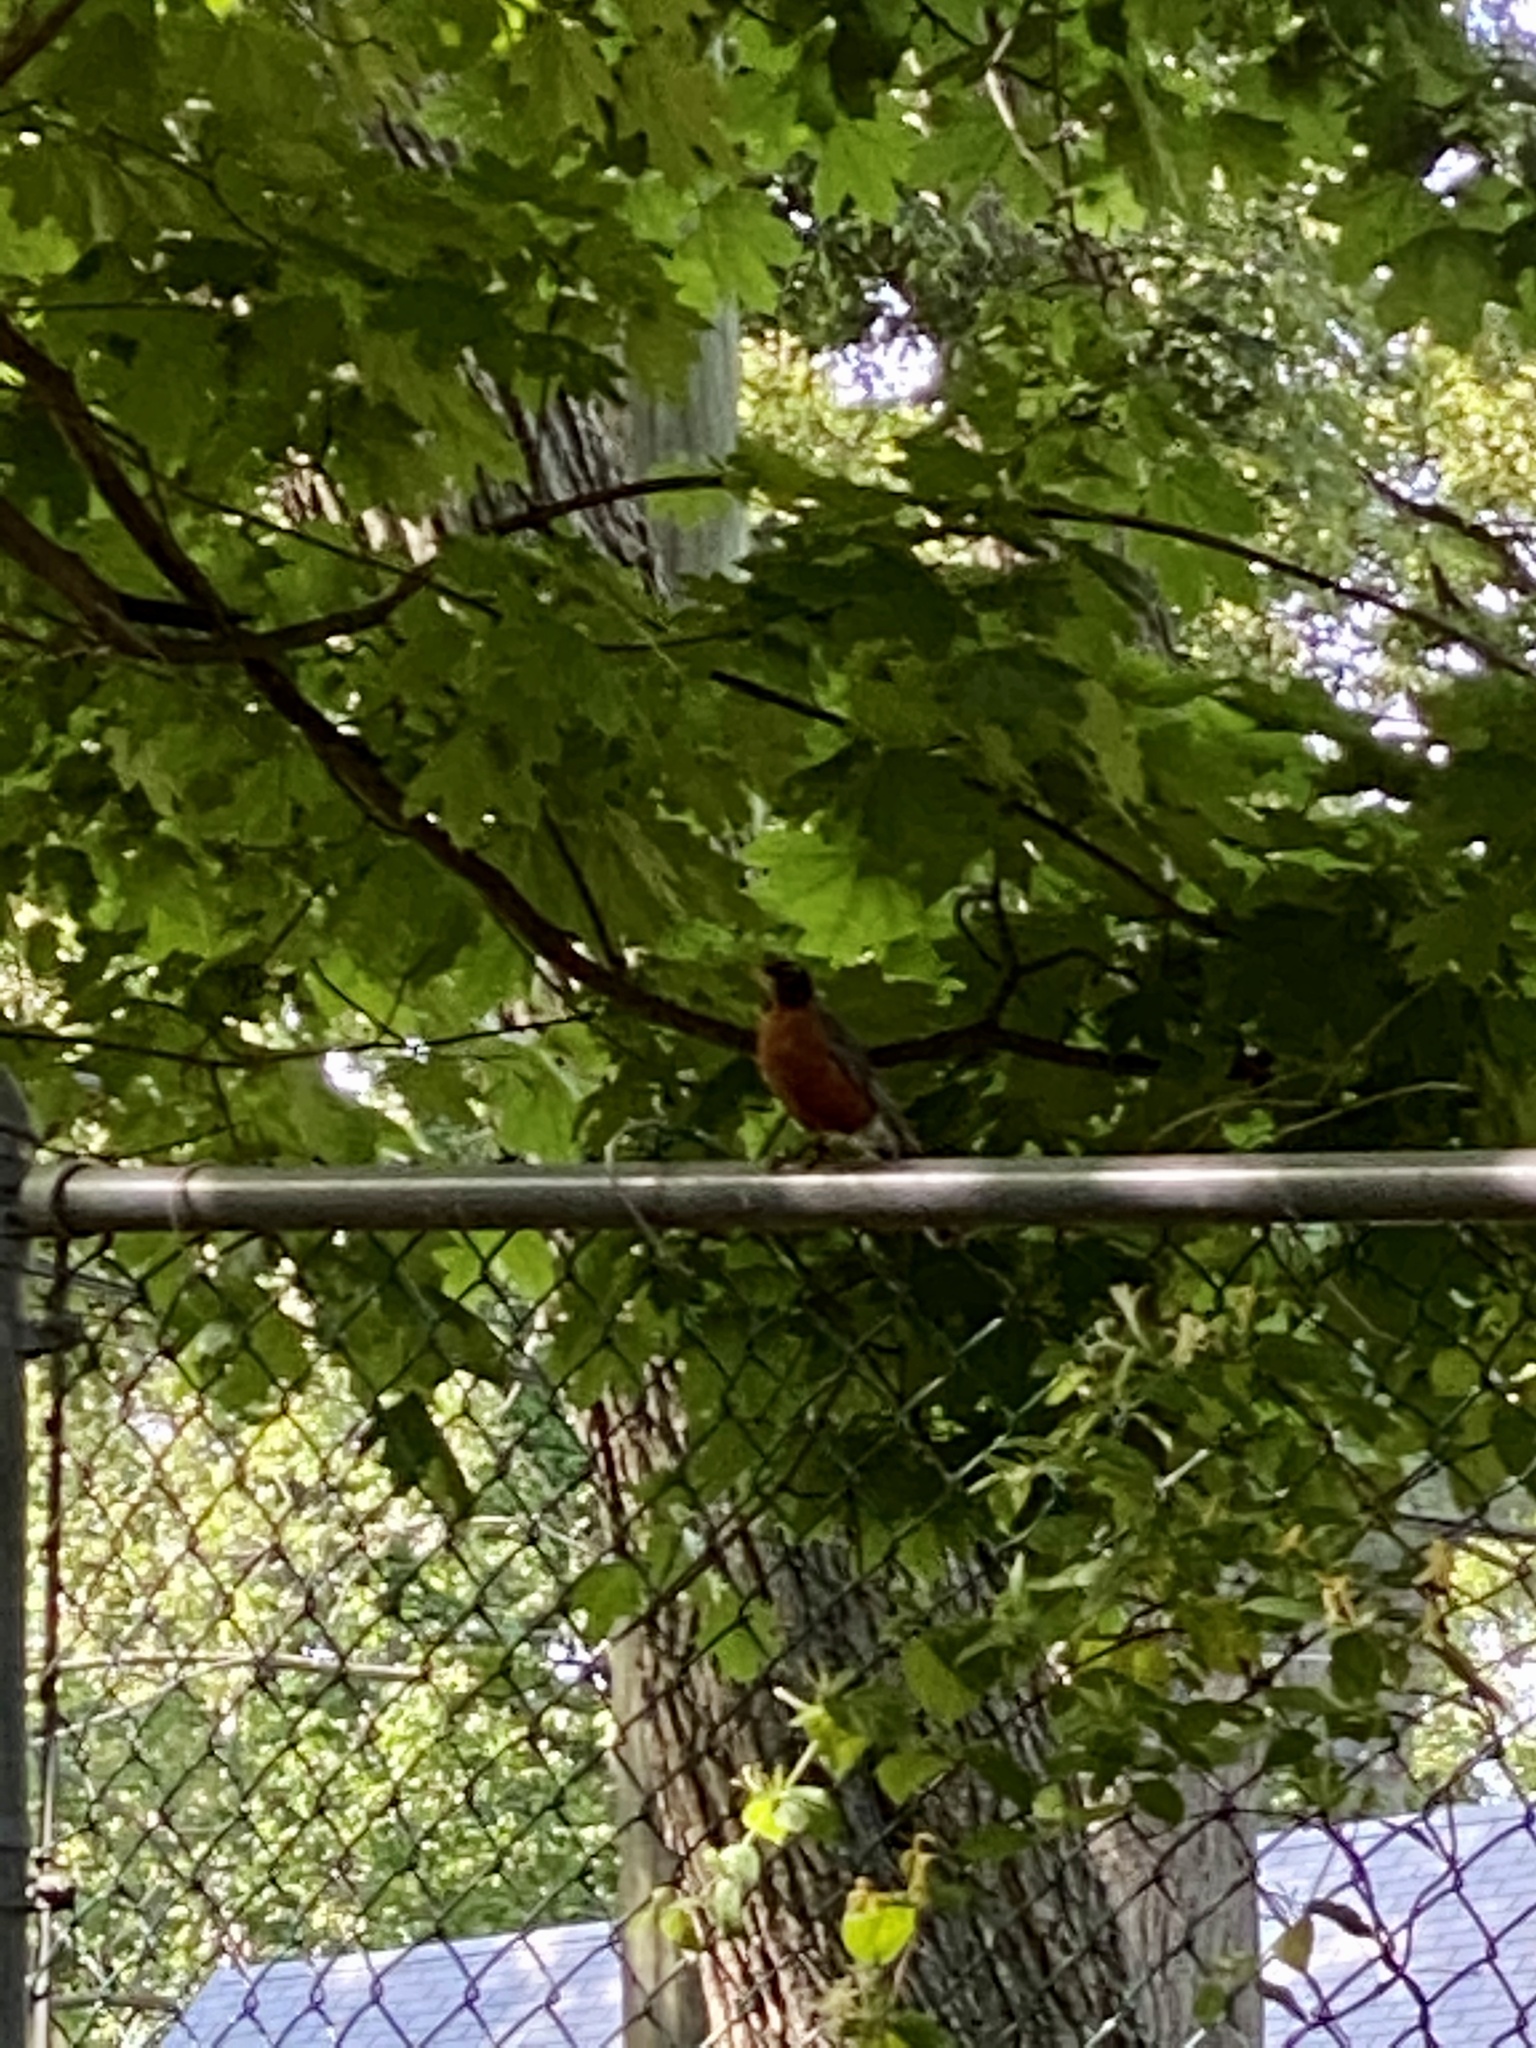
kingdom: Animalia
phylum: Chordata
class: Aves
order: Passeriformes
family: Turdidae
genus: Turdus
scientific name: Turdus migratorius
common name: American robin
